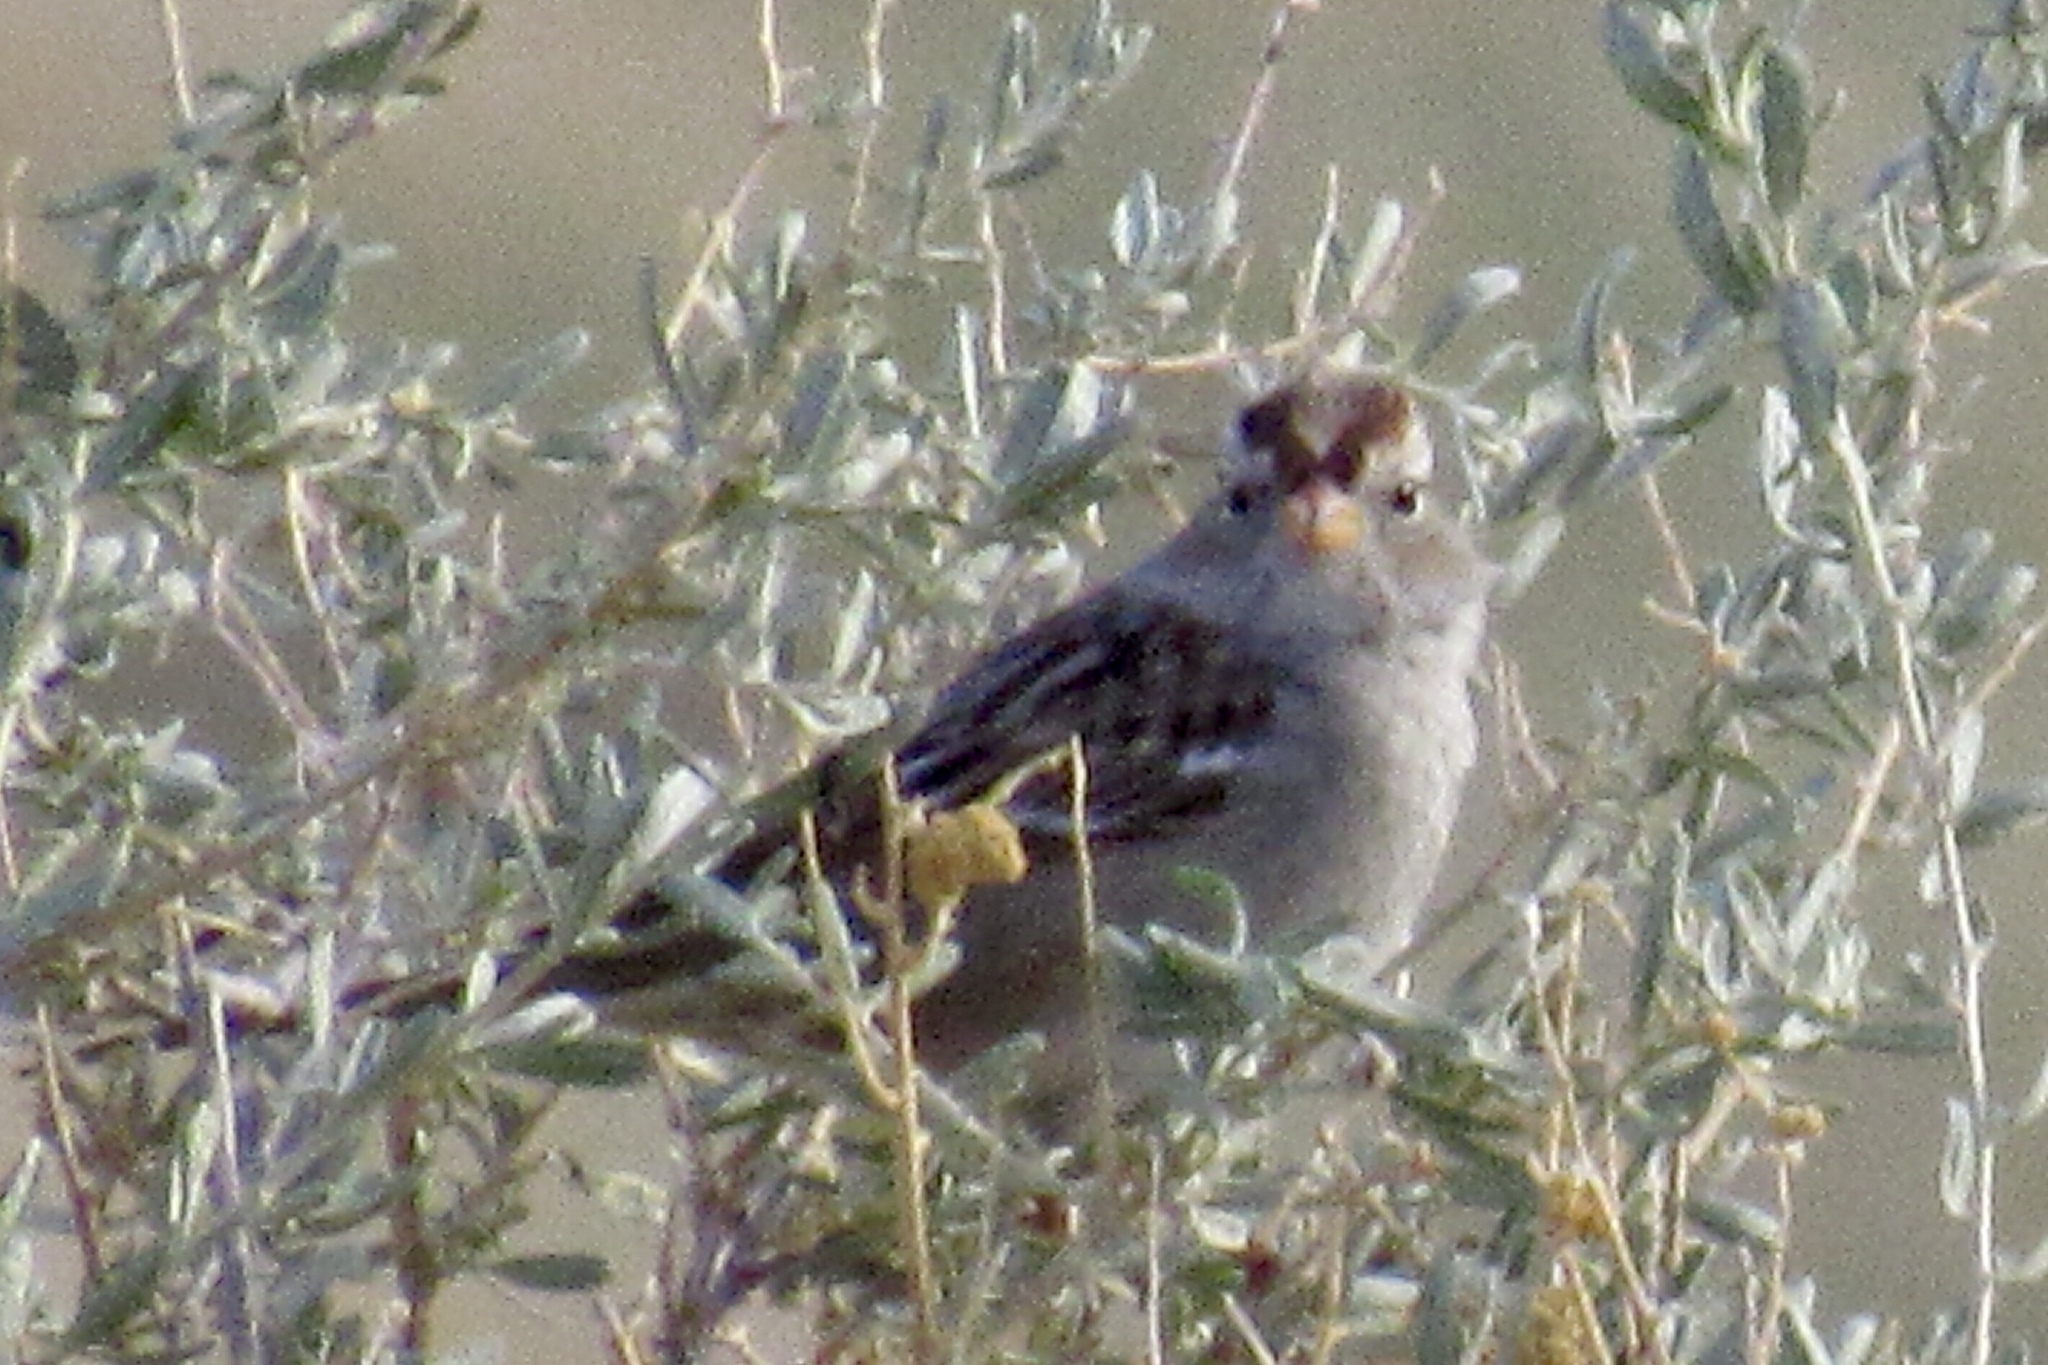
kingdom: Animalia
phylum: Chordata
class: Aves
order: Passeriformes
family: Passerellidae
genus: Zonotrichia
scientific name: Zonotrichia leucophrys
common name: White-crowned sparrow
